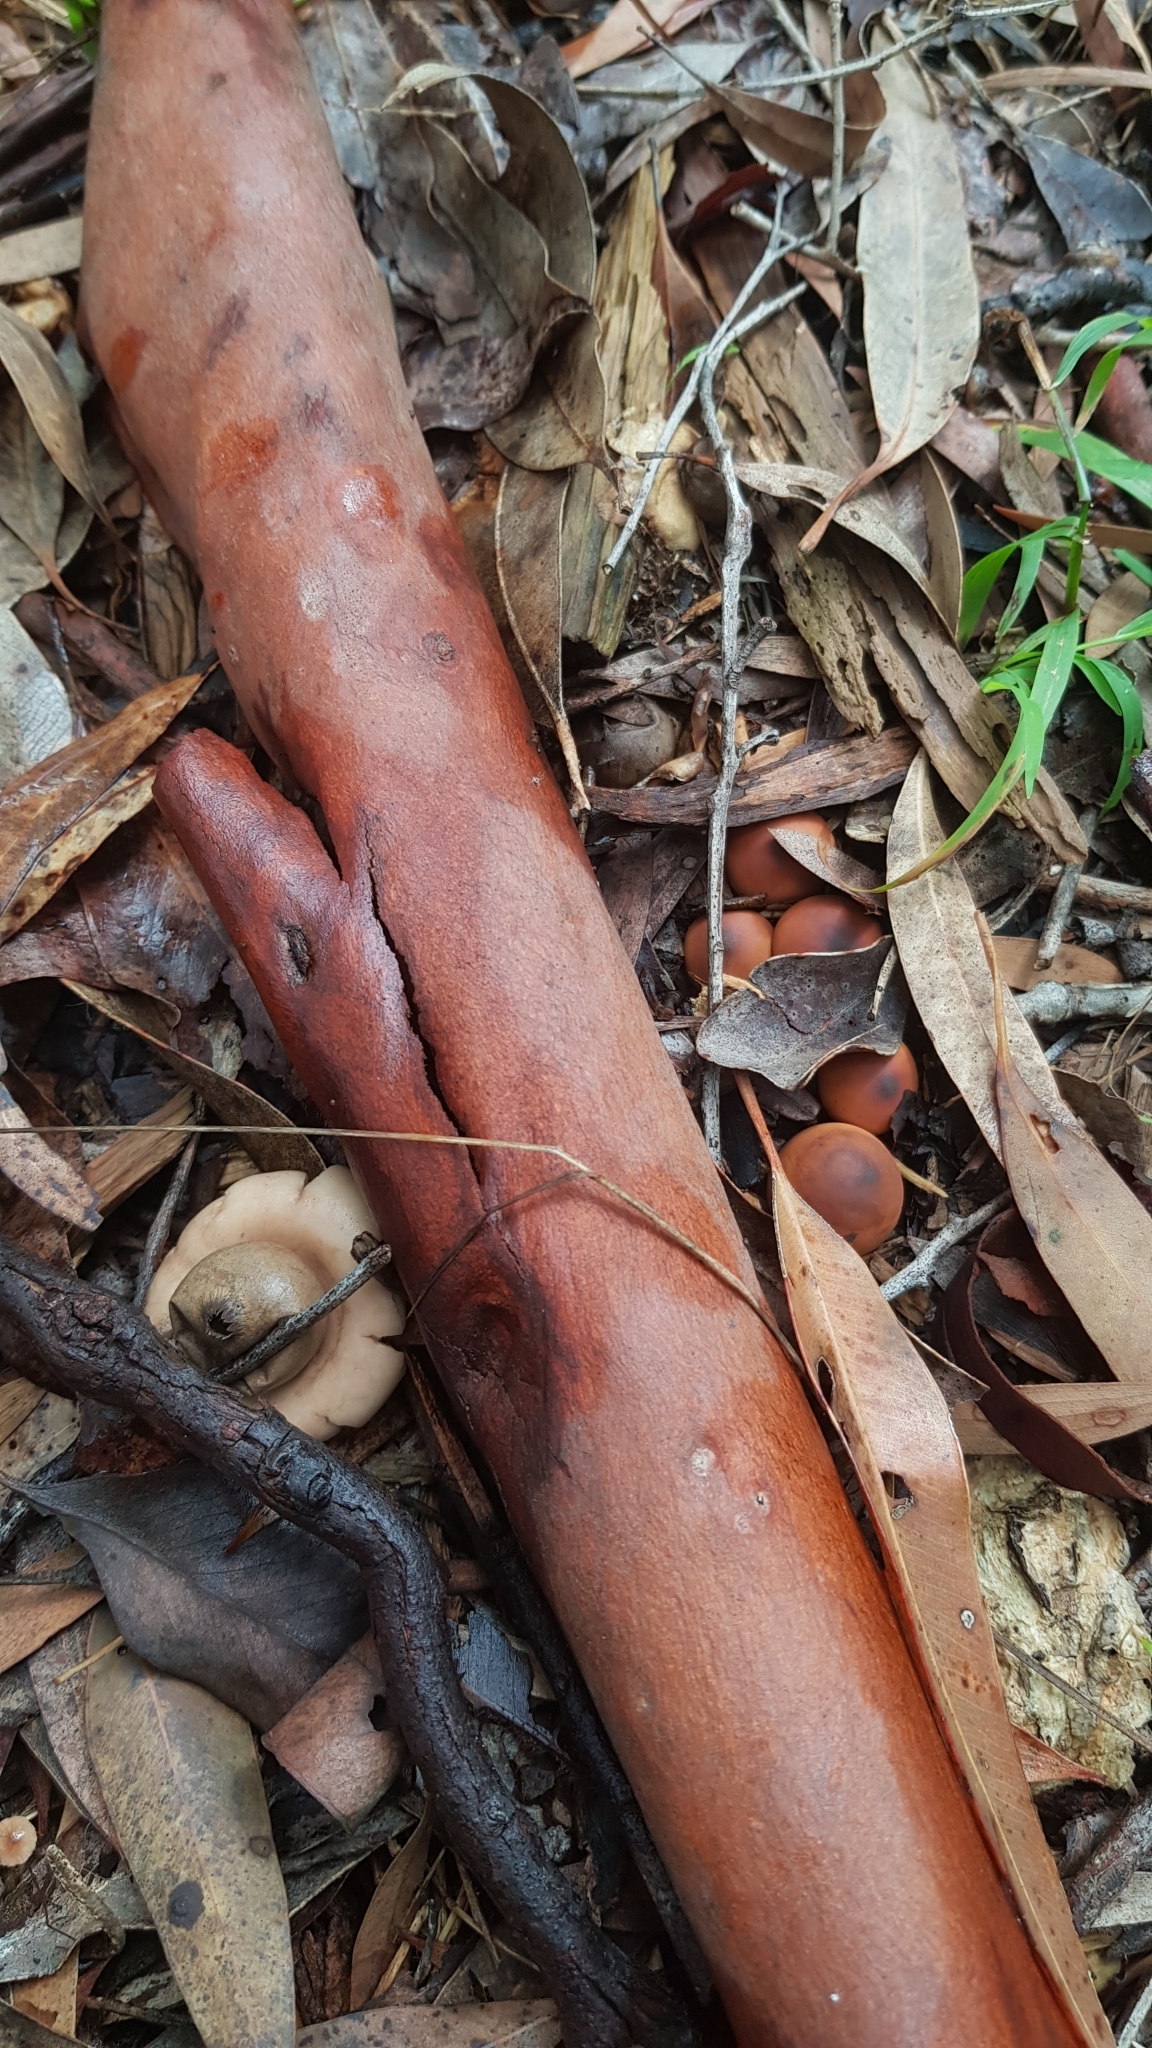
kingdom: Fungi
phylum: Basidiomycota
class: Agaricomycetes
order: Geastrales
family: Geastraceae
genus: Geastrum
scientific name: Geastrum saccatum
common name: Rounded earthstar
